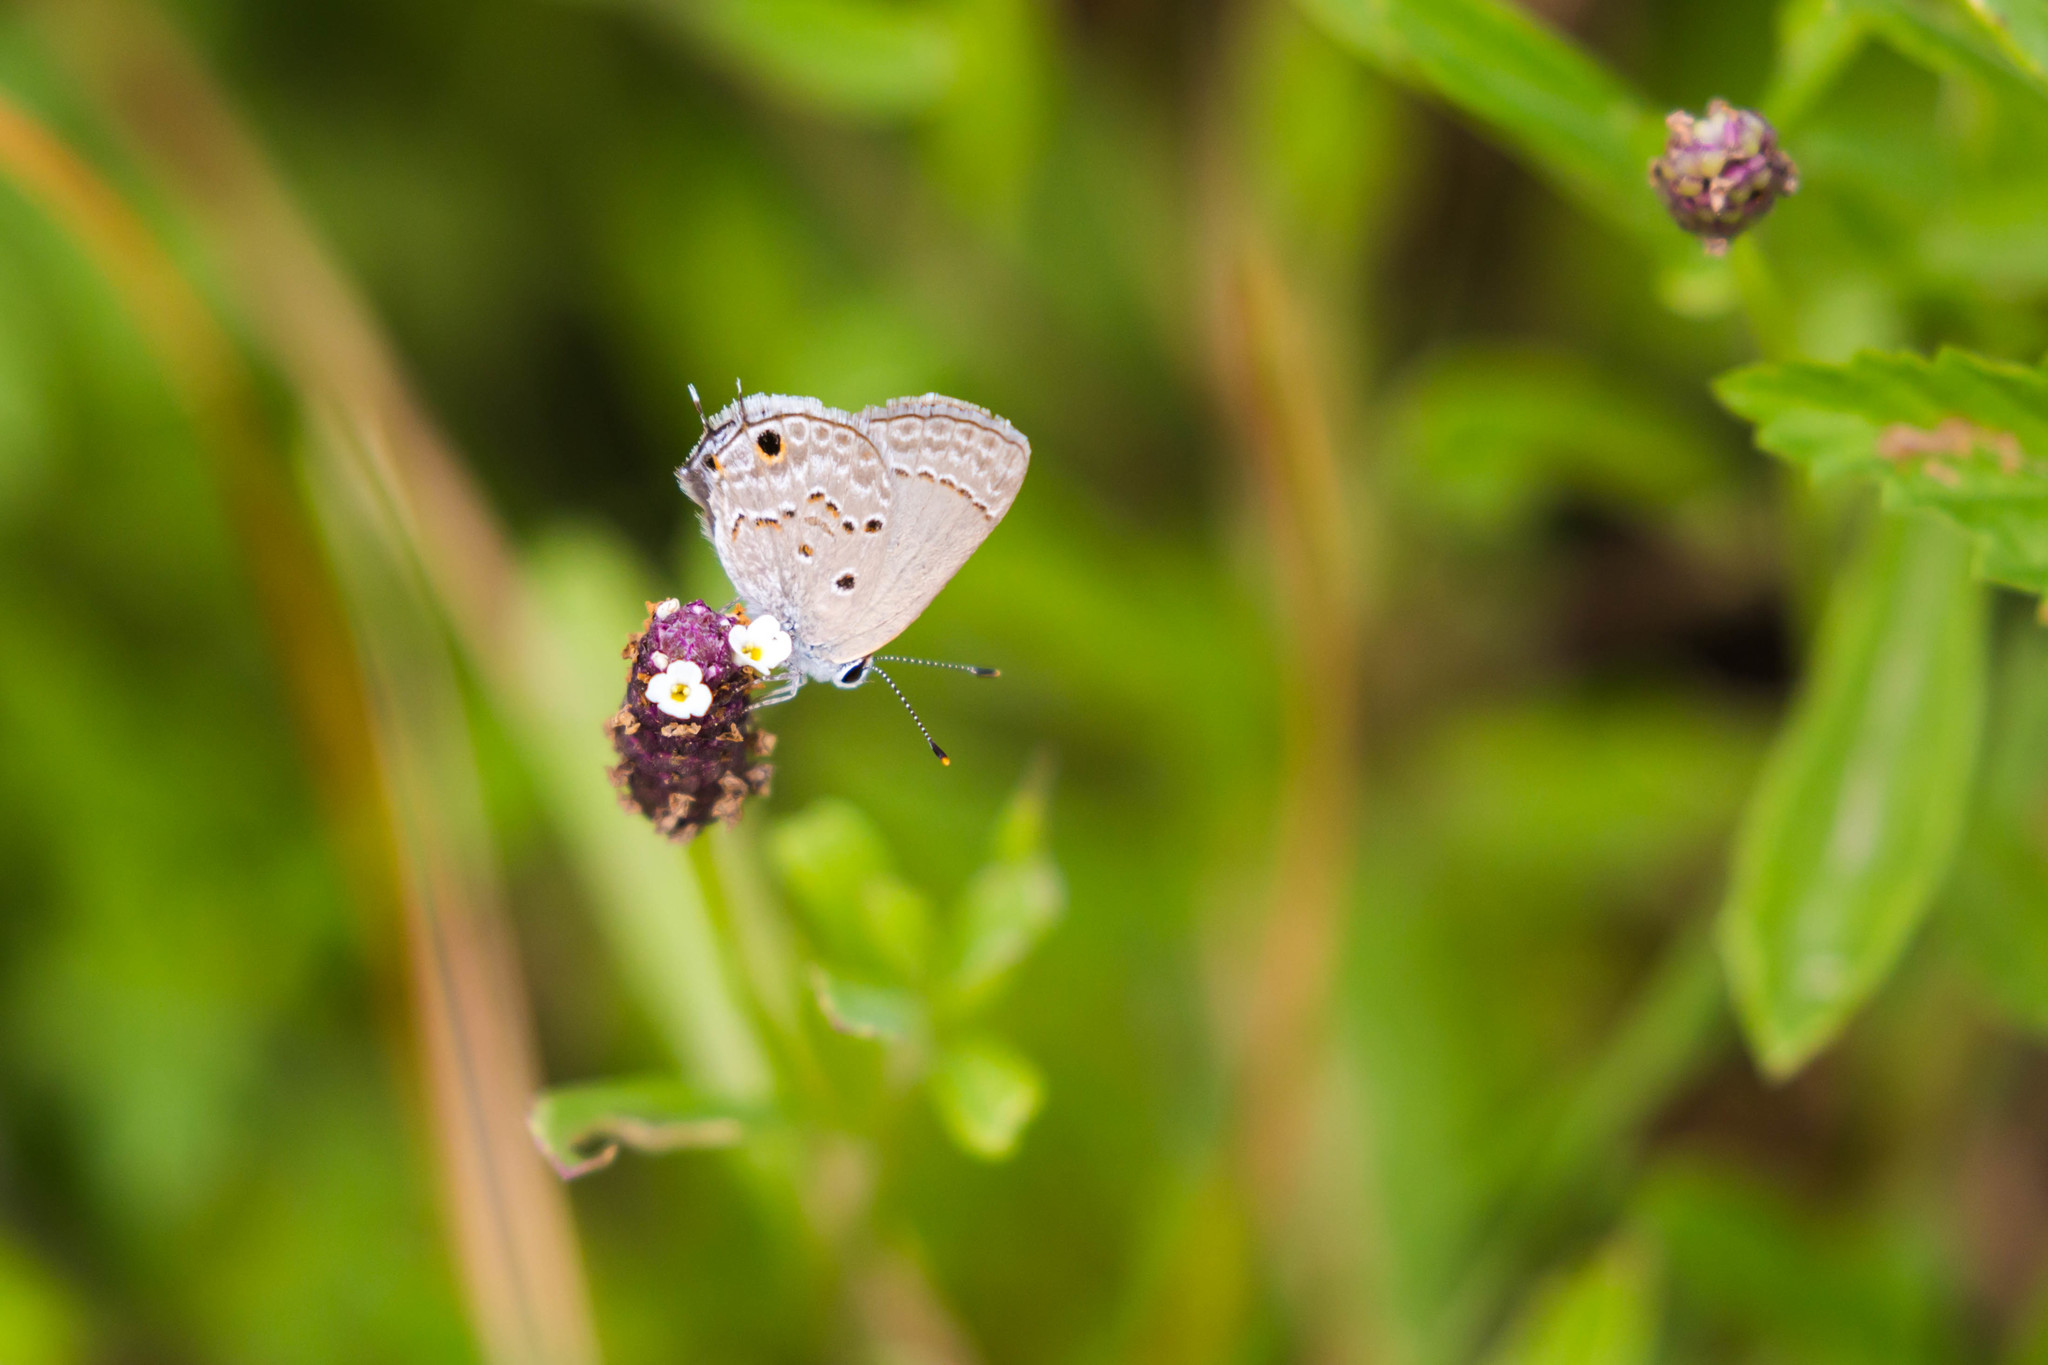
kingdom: Animalia
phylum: Arthropoda
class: Insecta
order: Lepidoptera
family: Lycaenidae
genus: Callicista
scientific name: Callicista columella
